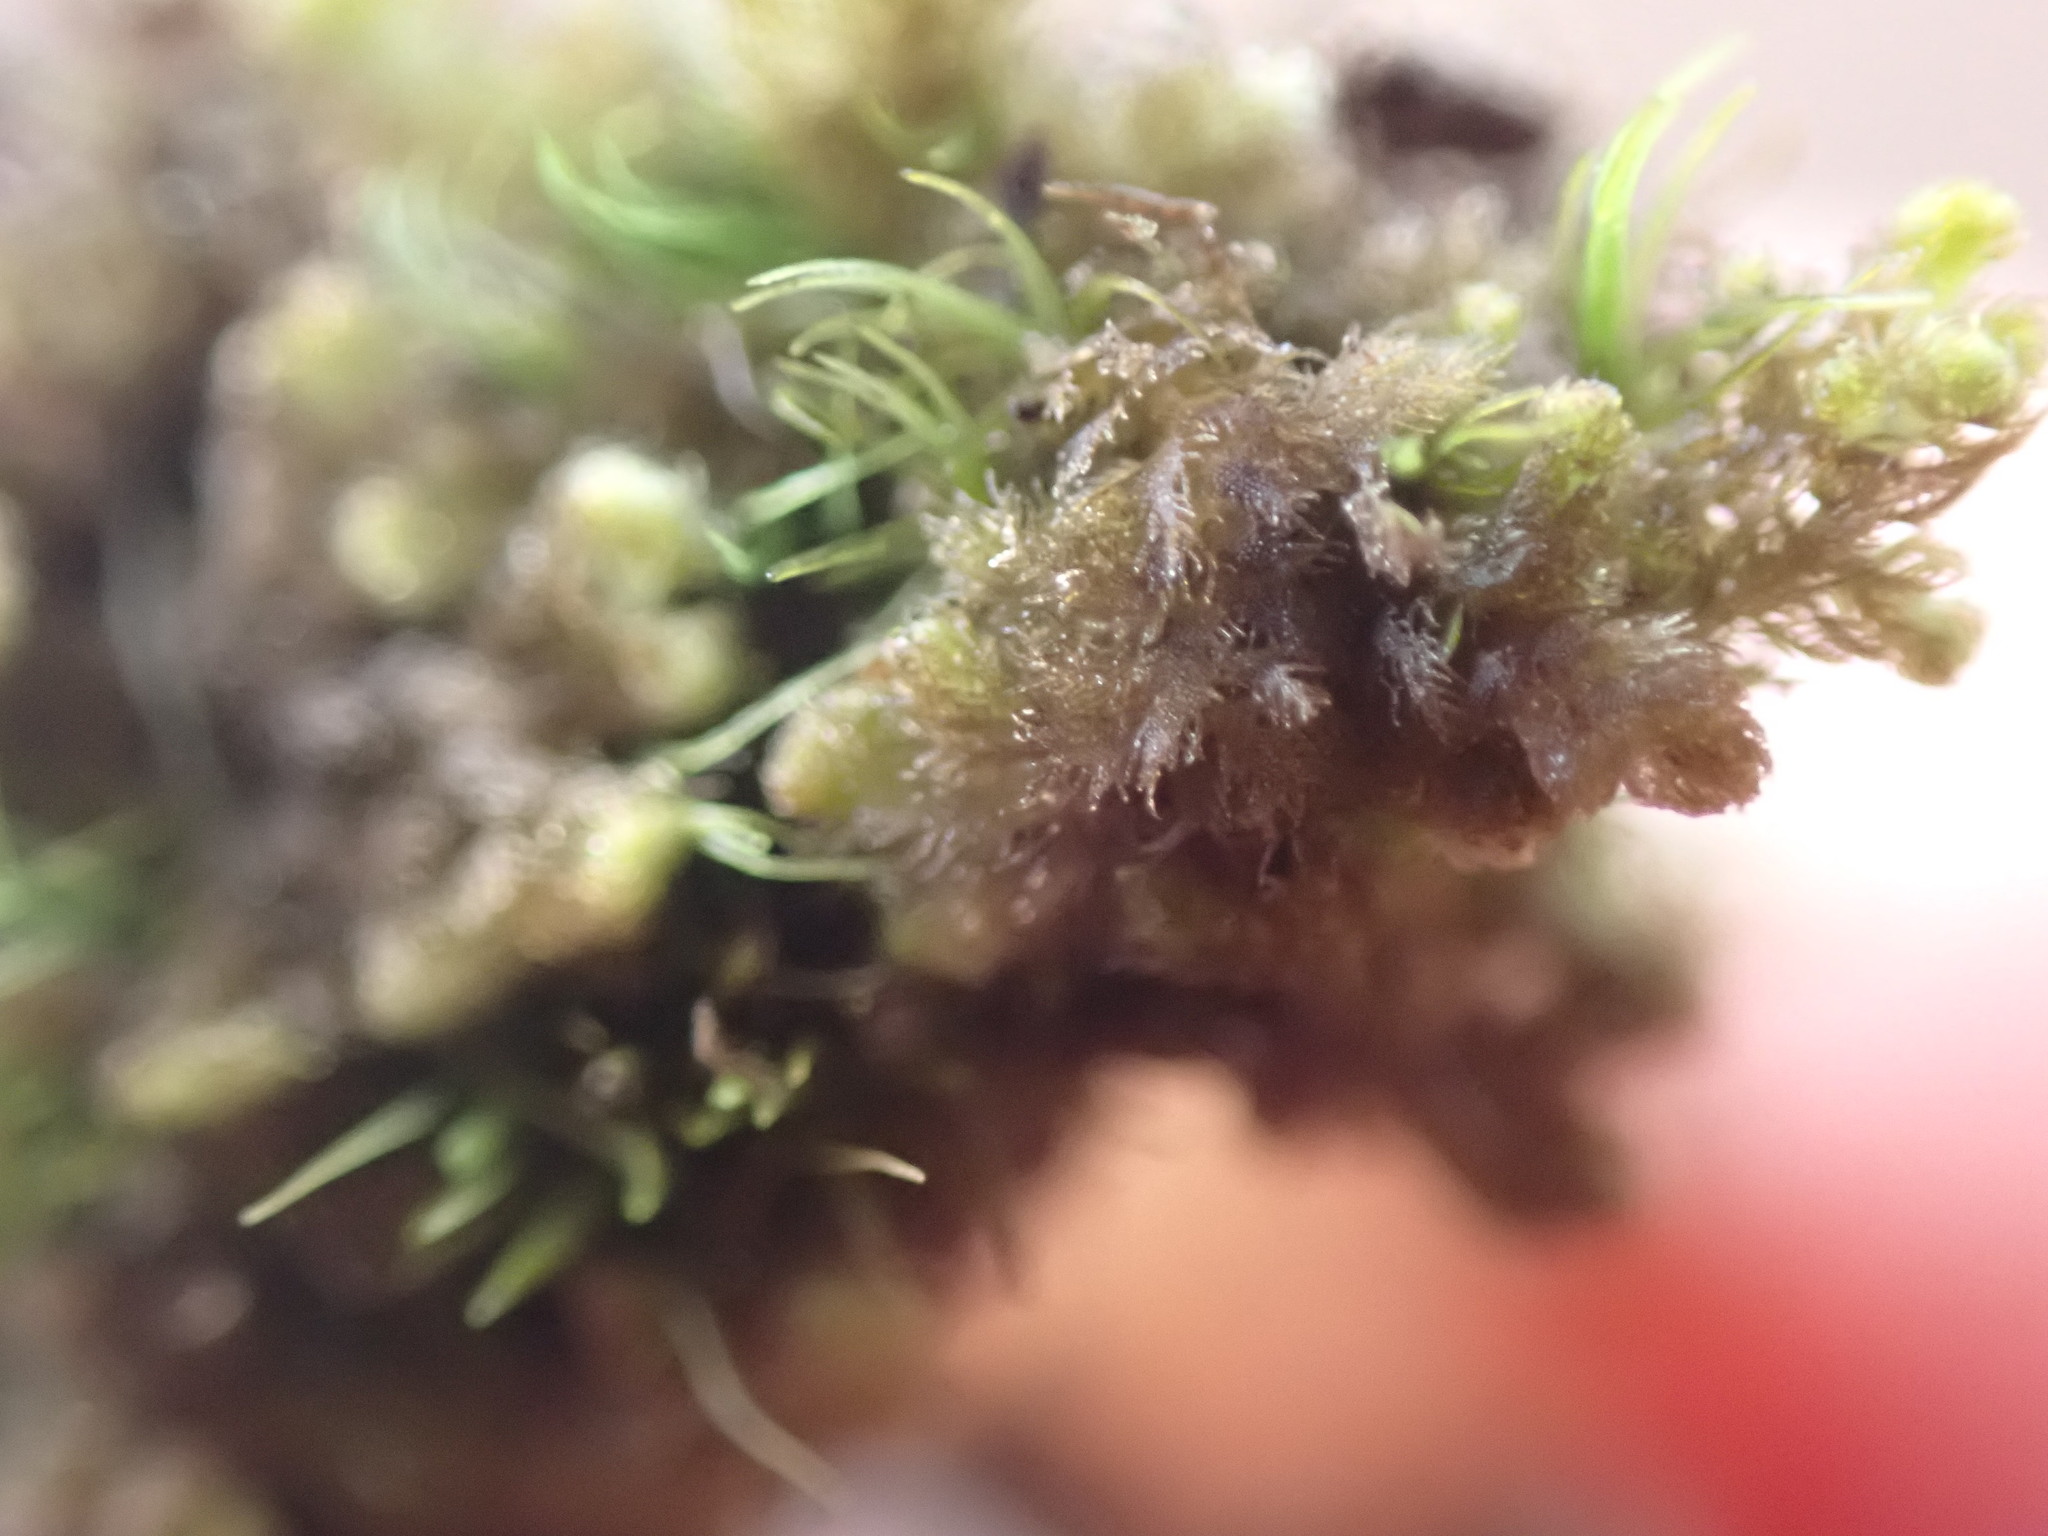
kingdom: Plantae
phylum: Marchantiophyta
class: Jungermanniopsida
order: Ptilidiales
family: Ptilidiaceae
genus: Ptilidium
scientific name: Ptilidium pulcherrimum
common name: Tree fringewort
